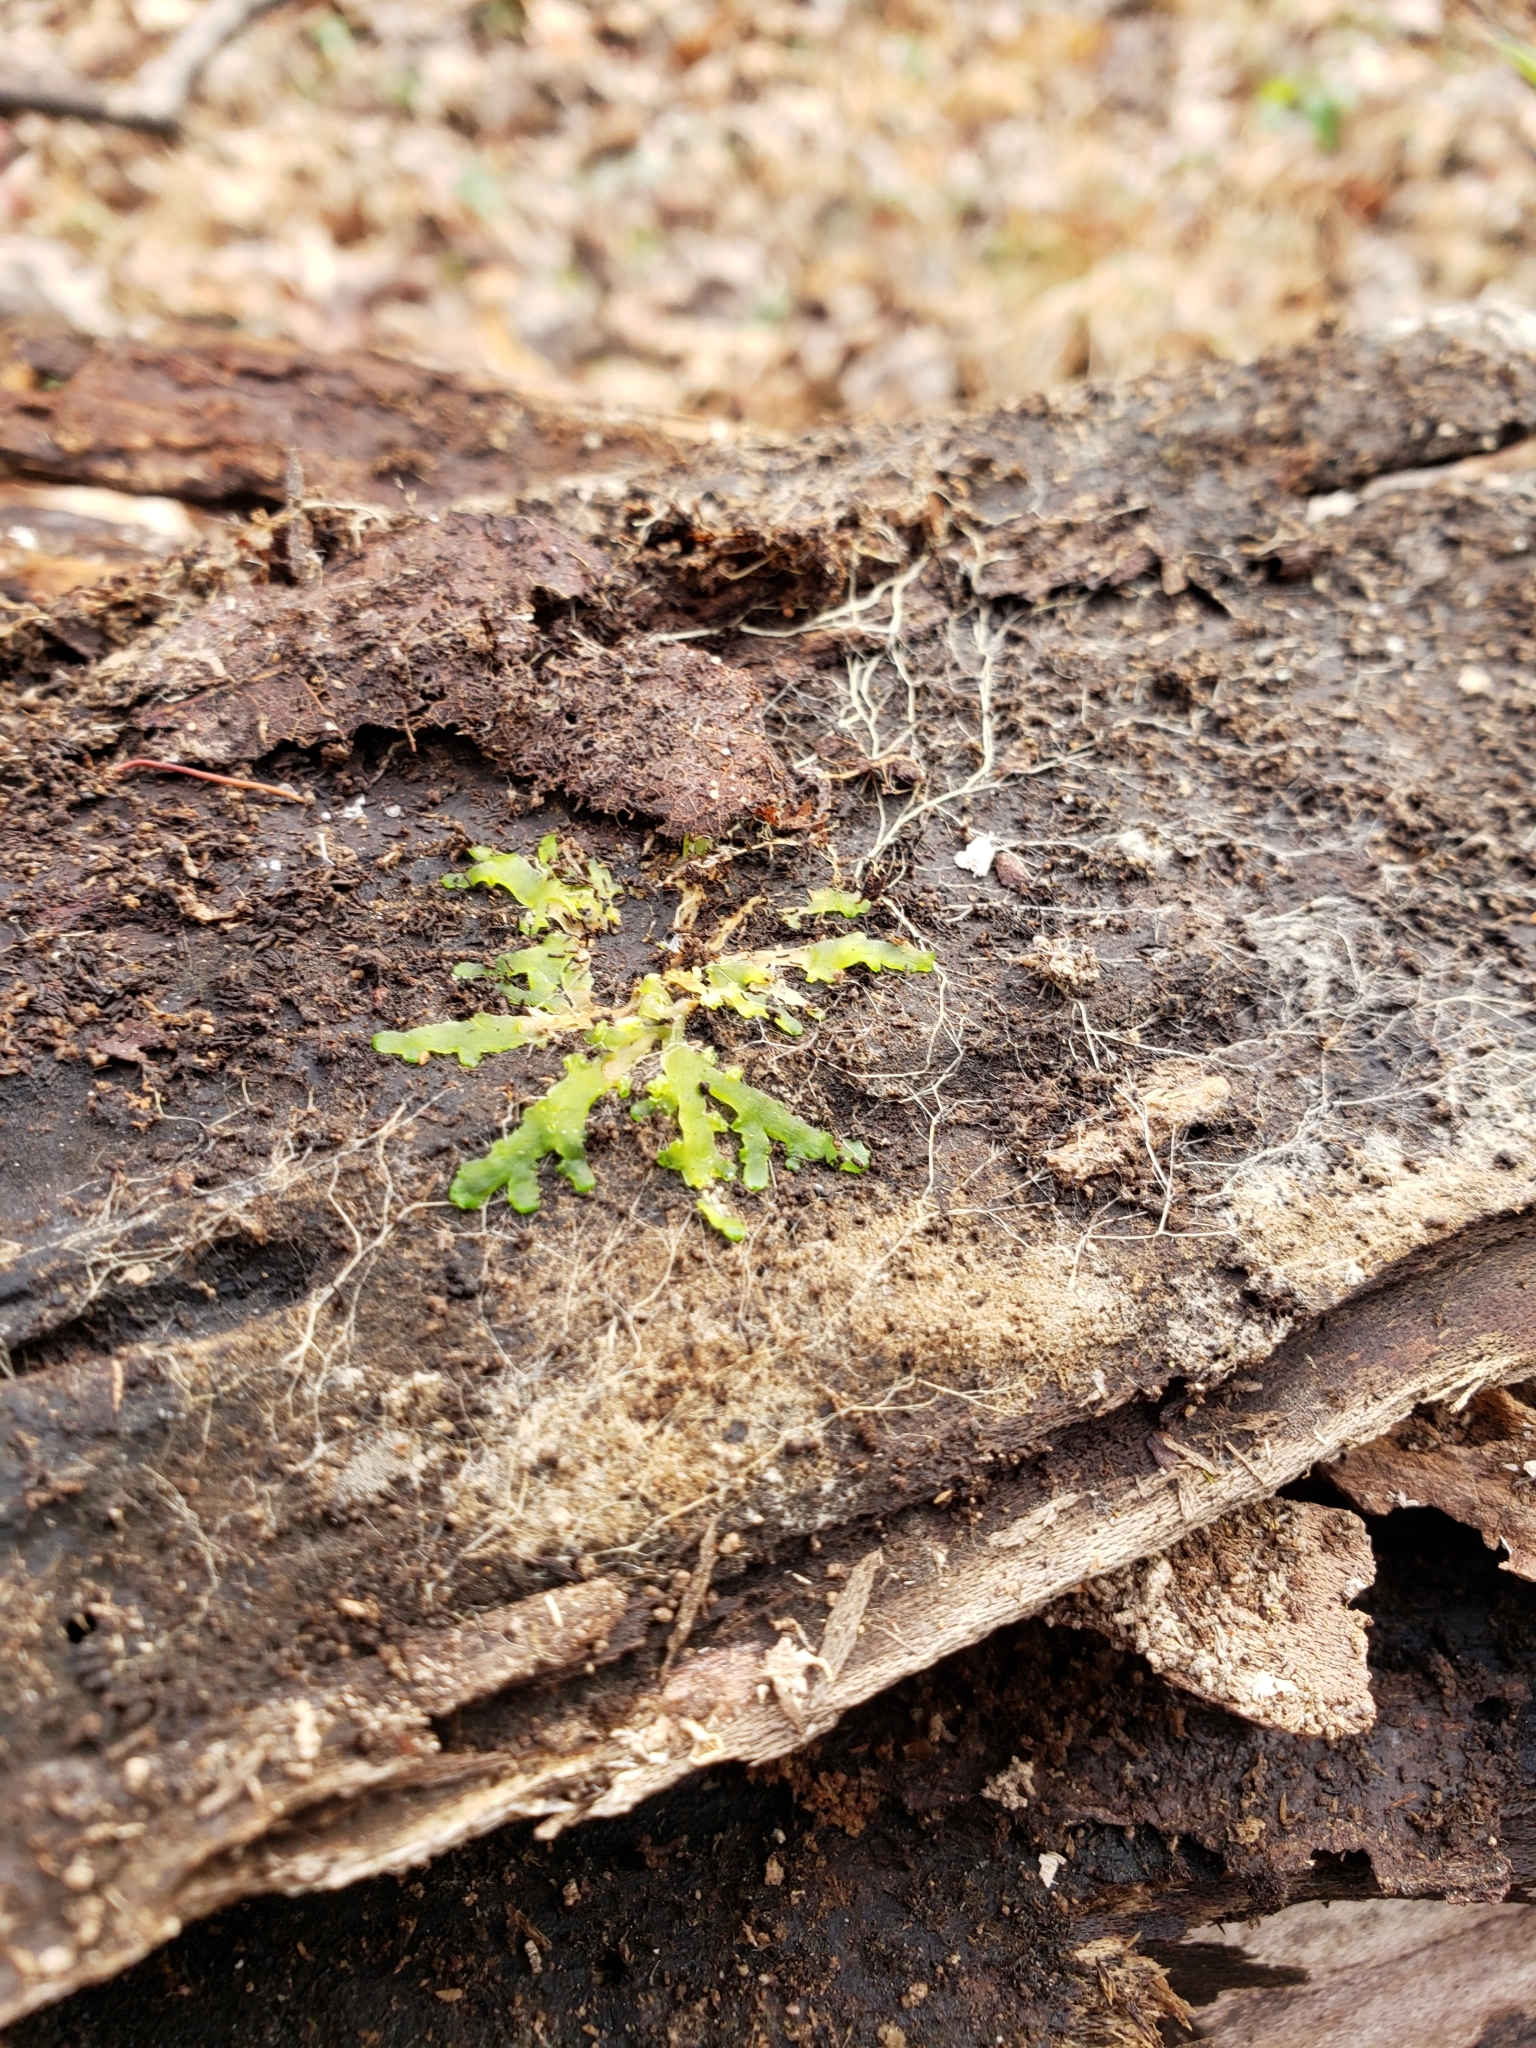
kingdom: Plantae
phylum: Marchantiophyta
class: Jungermanniopsida
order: Metzgeriales
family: Aneuraceae
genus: Aneura
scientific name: Aneura pinguis
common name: Common greasewort
